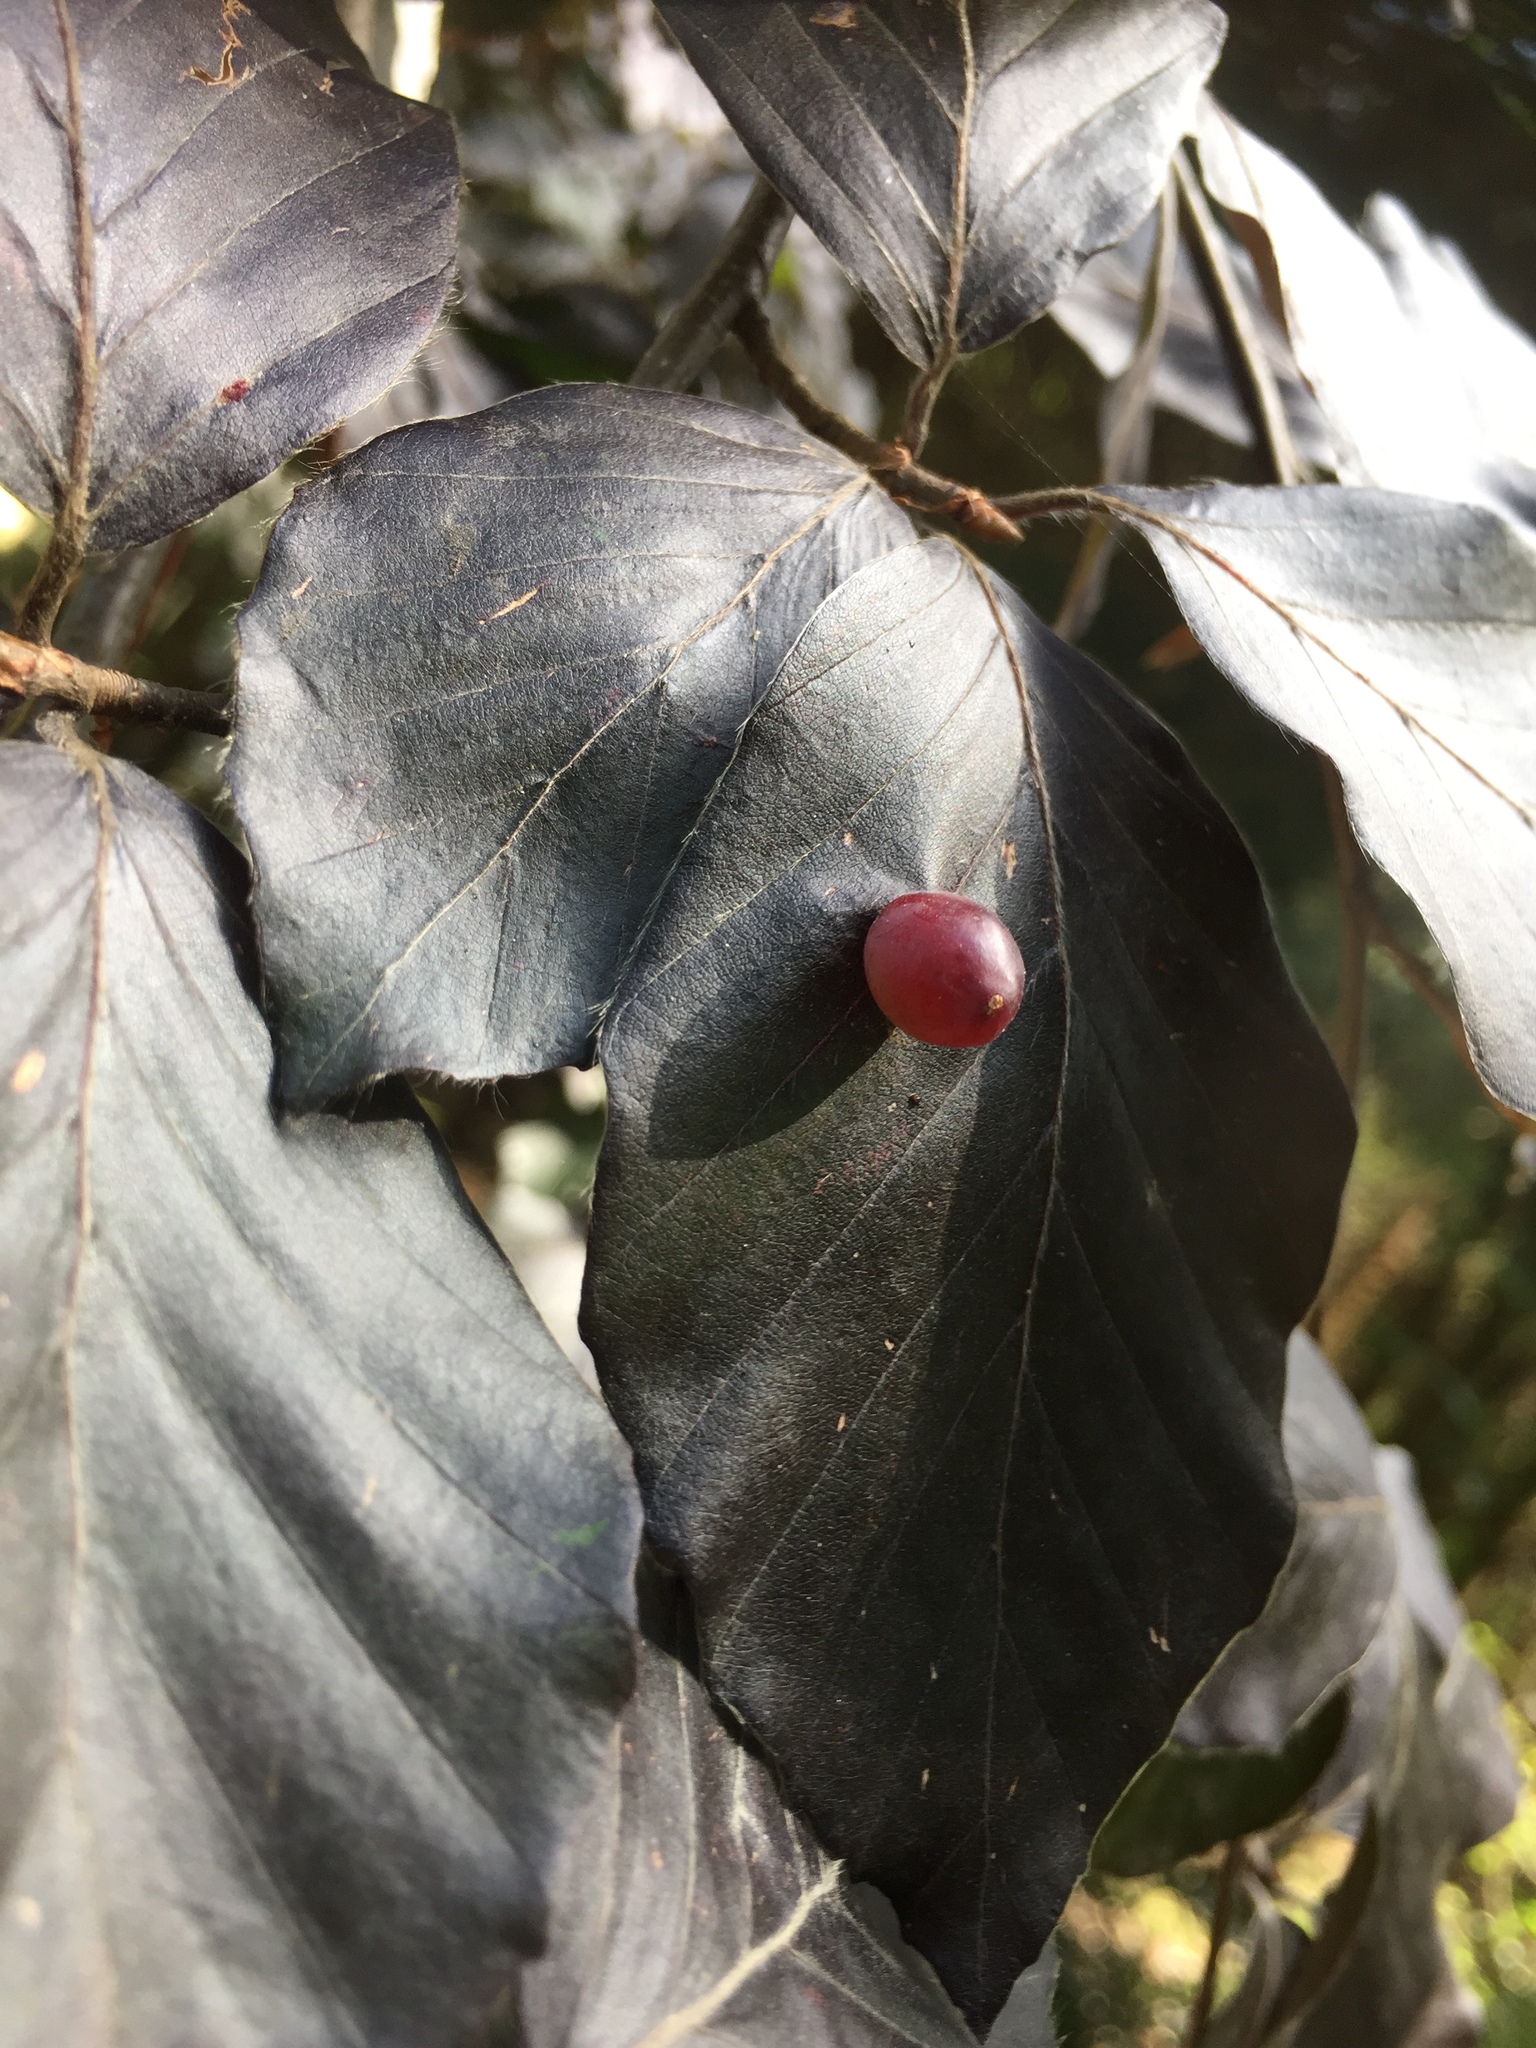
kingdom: Animalia
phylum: Arthropoda
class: Insecta
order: Diptera
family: Cecidomyiidae
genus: Mikiola
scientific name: Mikiola fagi
